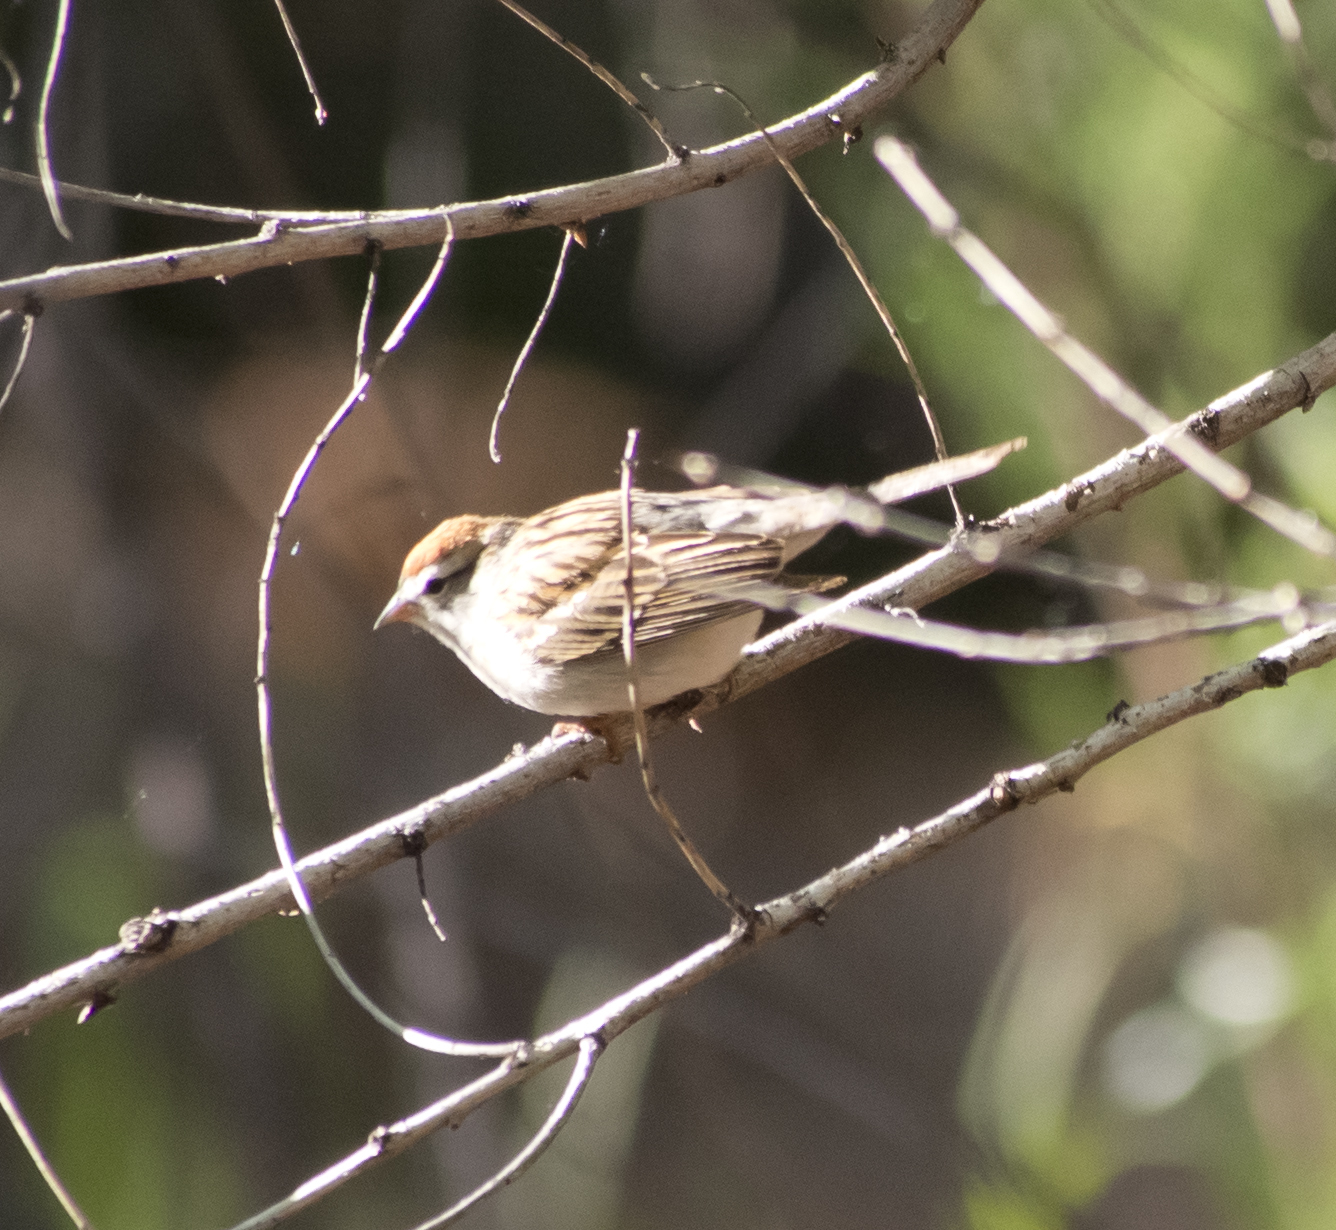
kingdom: Animalia
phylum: Chordata
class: Aves
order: Passeriformes
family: Passerellidae
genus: Spizella
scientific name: Spizella passerina
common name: Chipping sparrow
